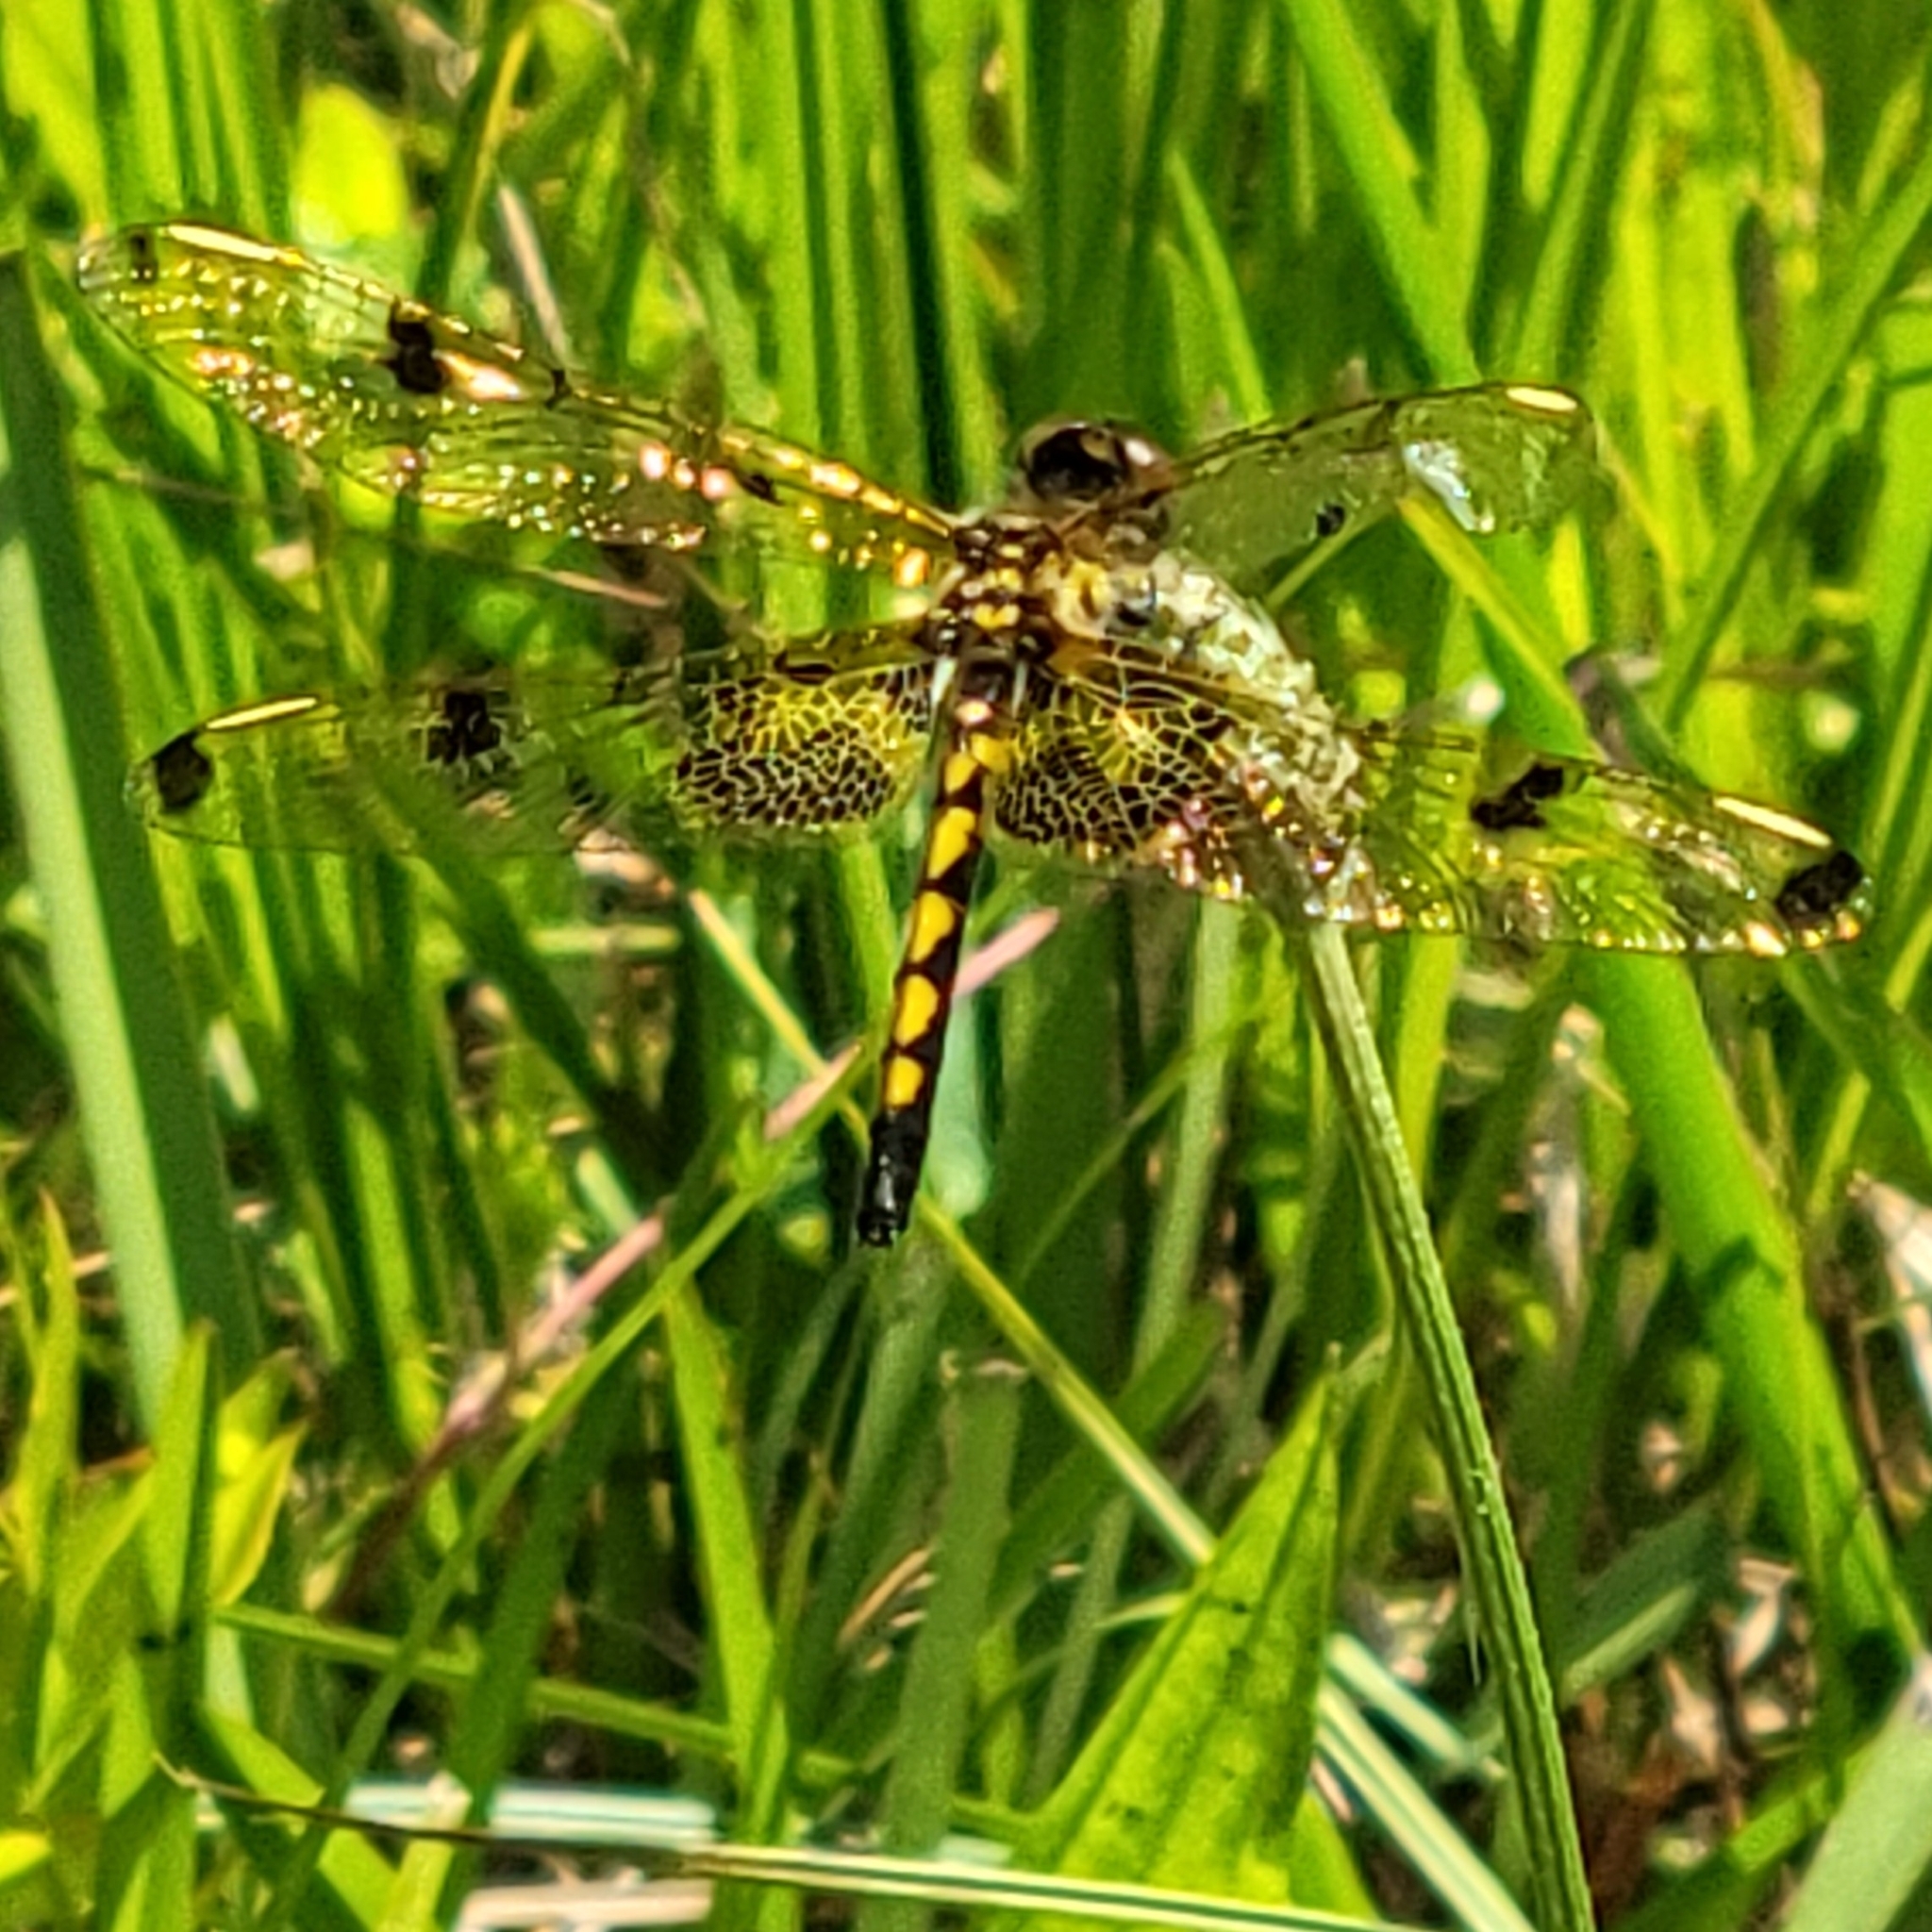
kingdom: Animalia
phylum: Arthropoda
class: Insecta
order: Odonata
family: Libellulidae
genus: Celithemis
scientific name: Celithemis elisa
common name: Calico pennant
